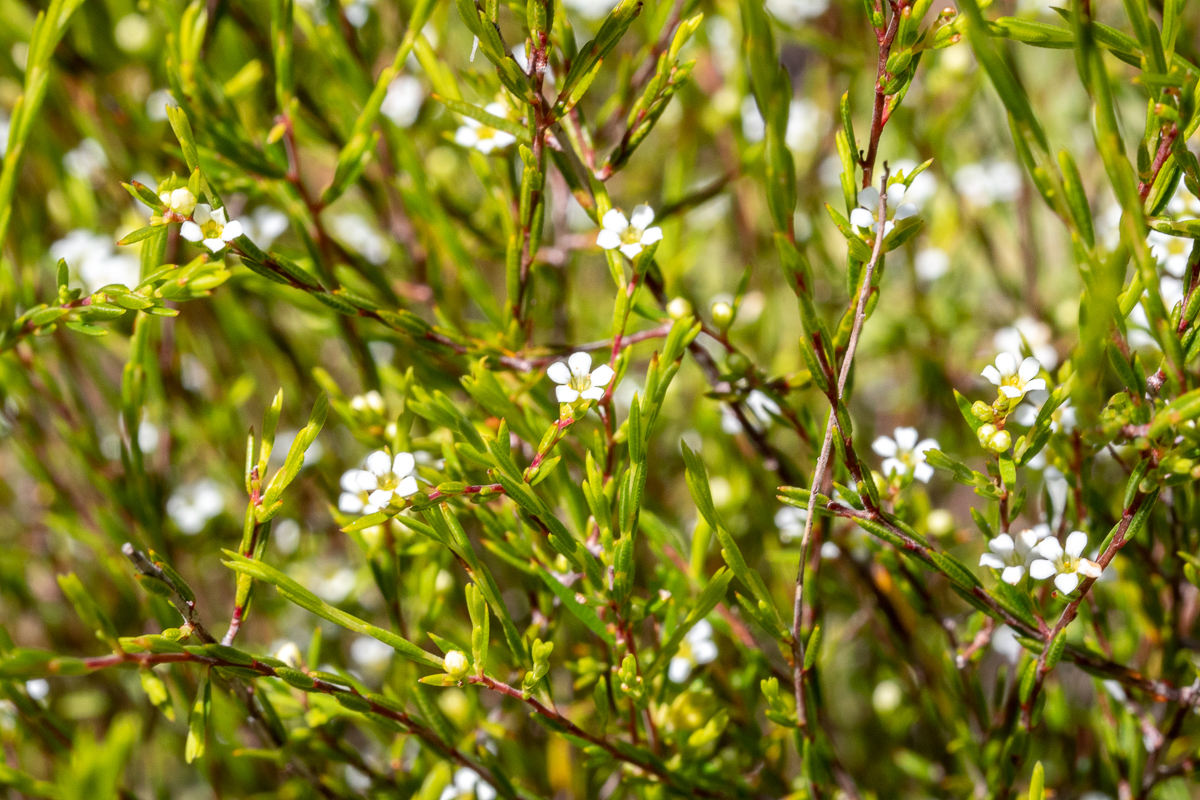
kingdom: Plantae
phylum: Tracheophyta
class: Magnoliopsida
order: Sapindales
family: Rutaceae
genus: Coleonema
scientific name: Coleonema juniperinum
